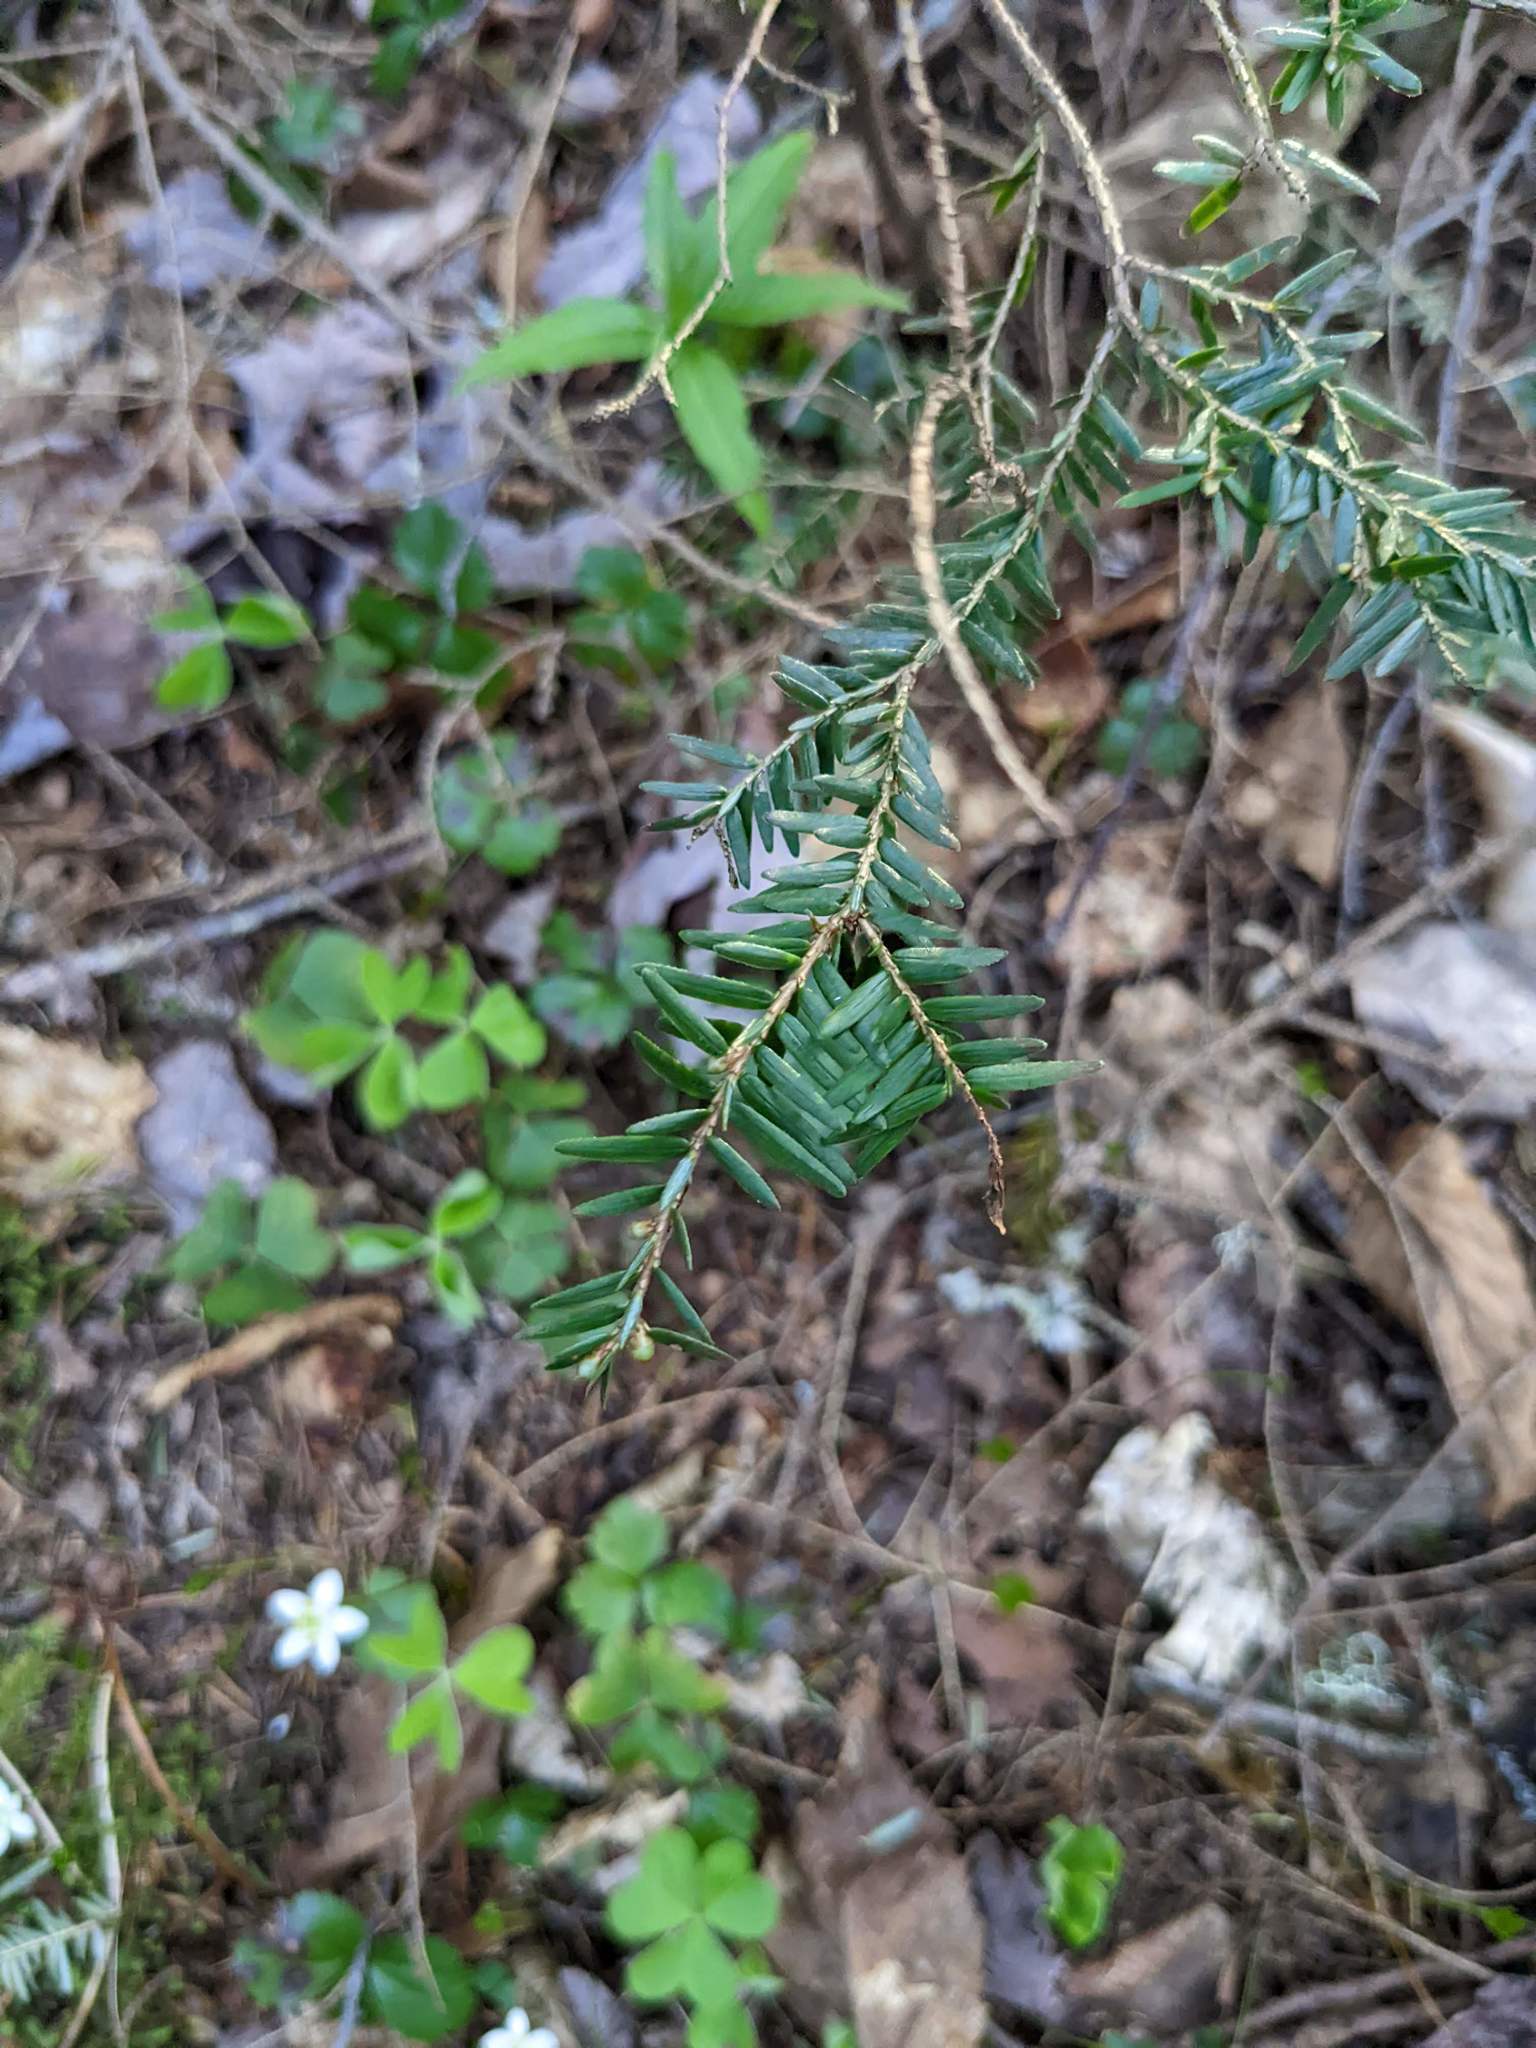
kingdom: Plantae
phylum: Tracheophyta
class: Pinopsida
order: Pinales
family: Pinaceae
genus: Tsuga
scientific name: Tsuga canadensis
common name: Eastern hemlock
